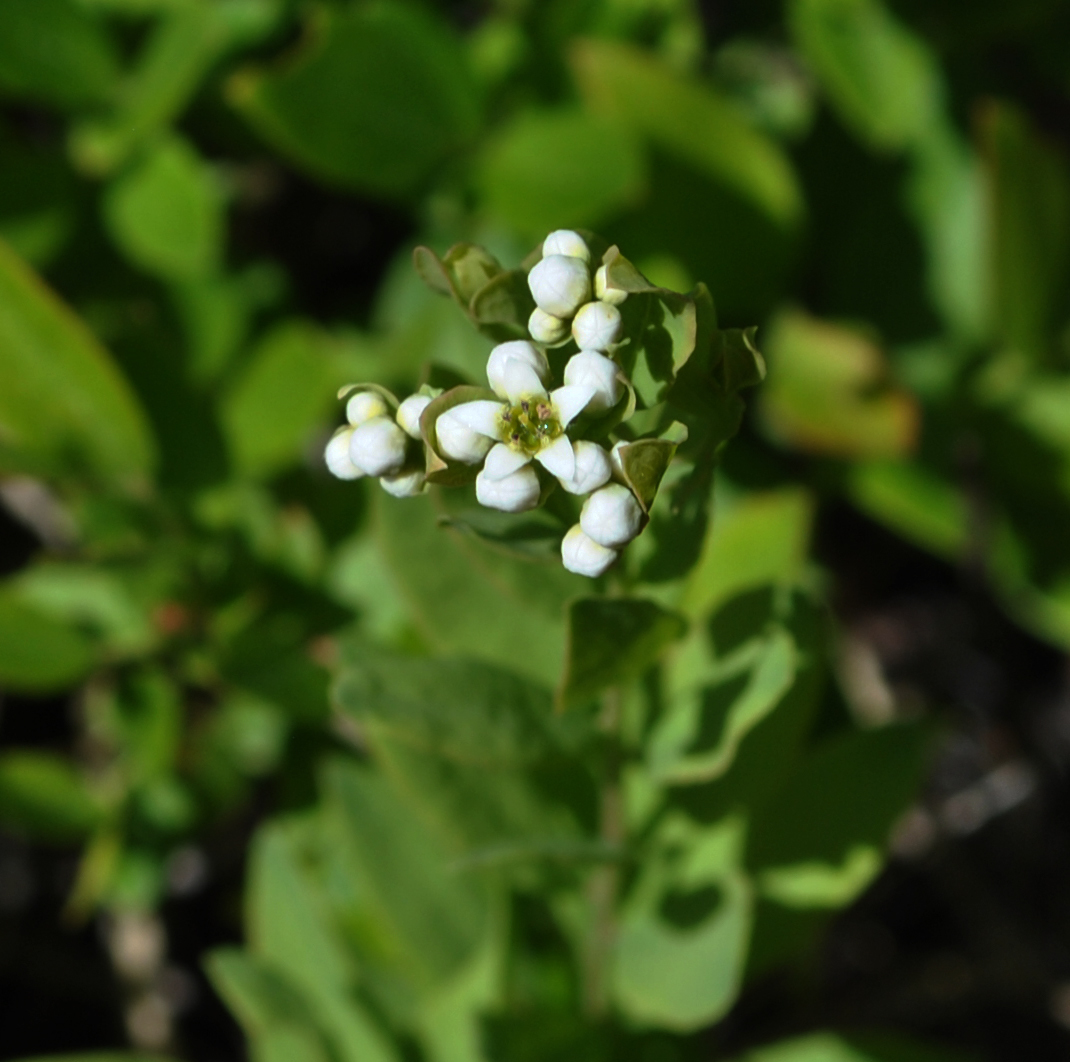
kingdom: Plantae
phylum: Tracheophyta
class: Magnoliopsida
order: Santalales
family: Comandraceae
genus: Comandra
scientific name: Comandra umbellata
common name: Bastard toadflax
